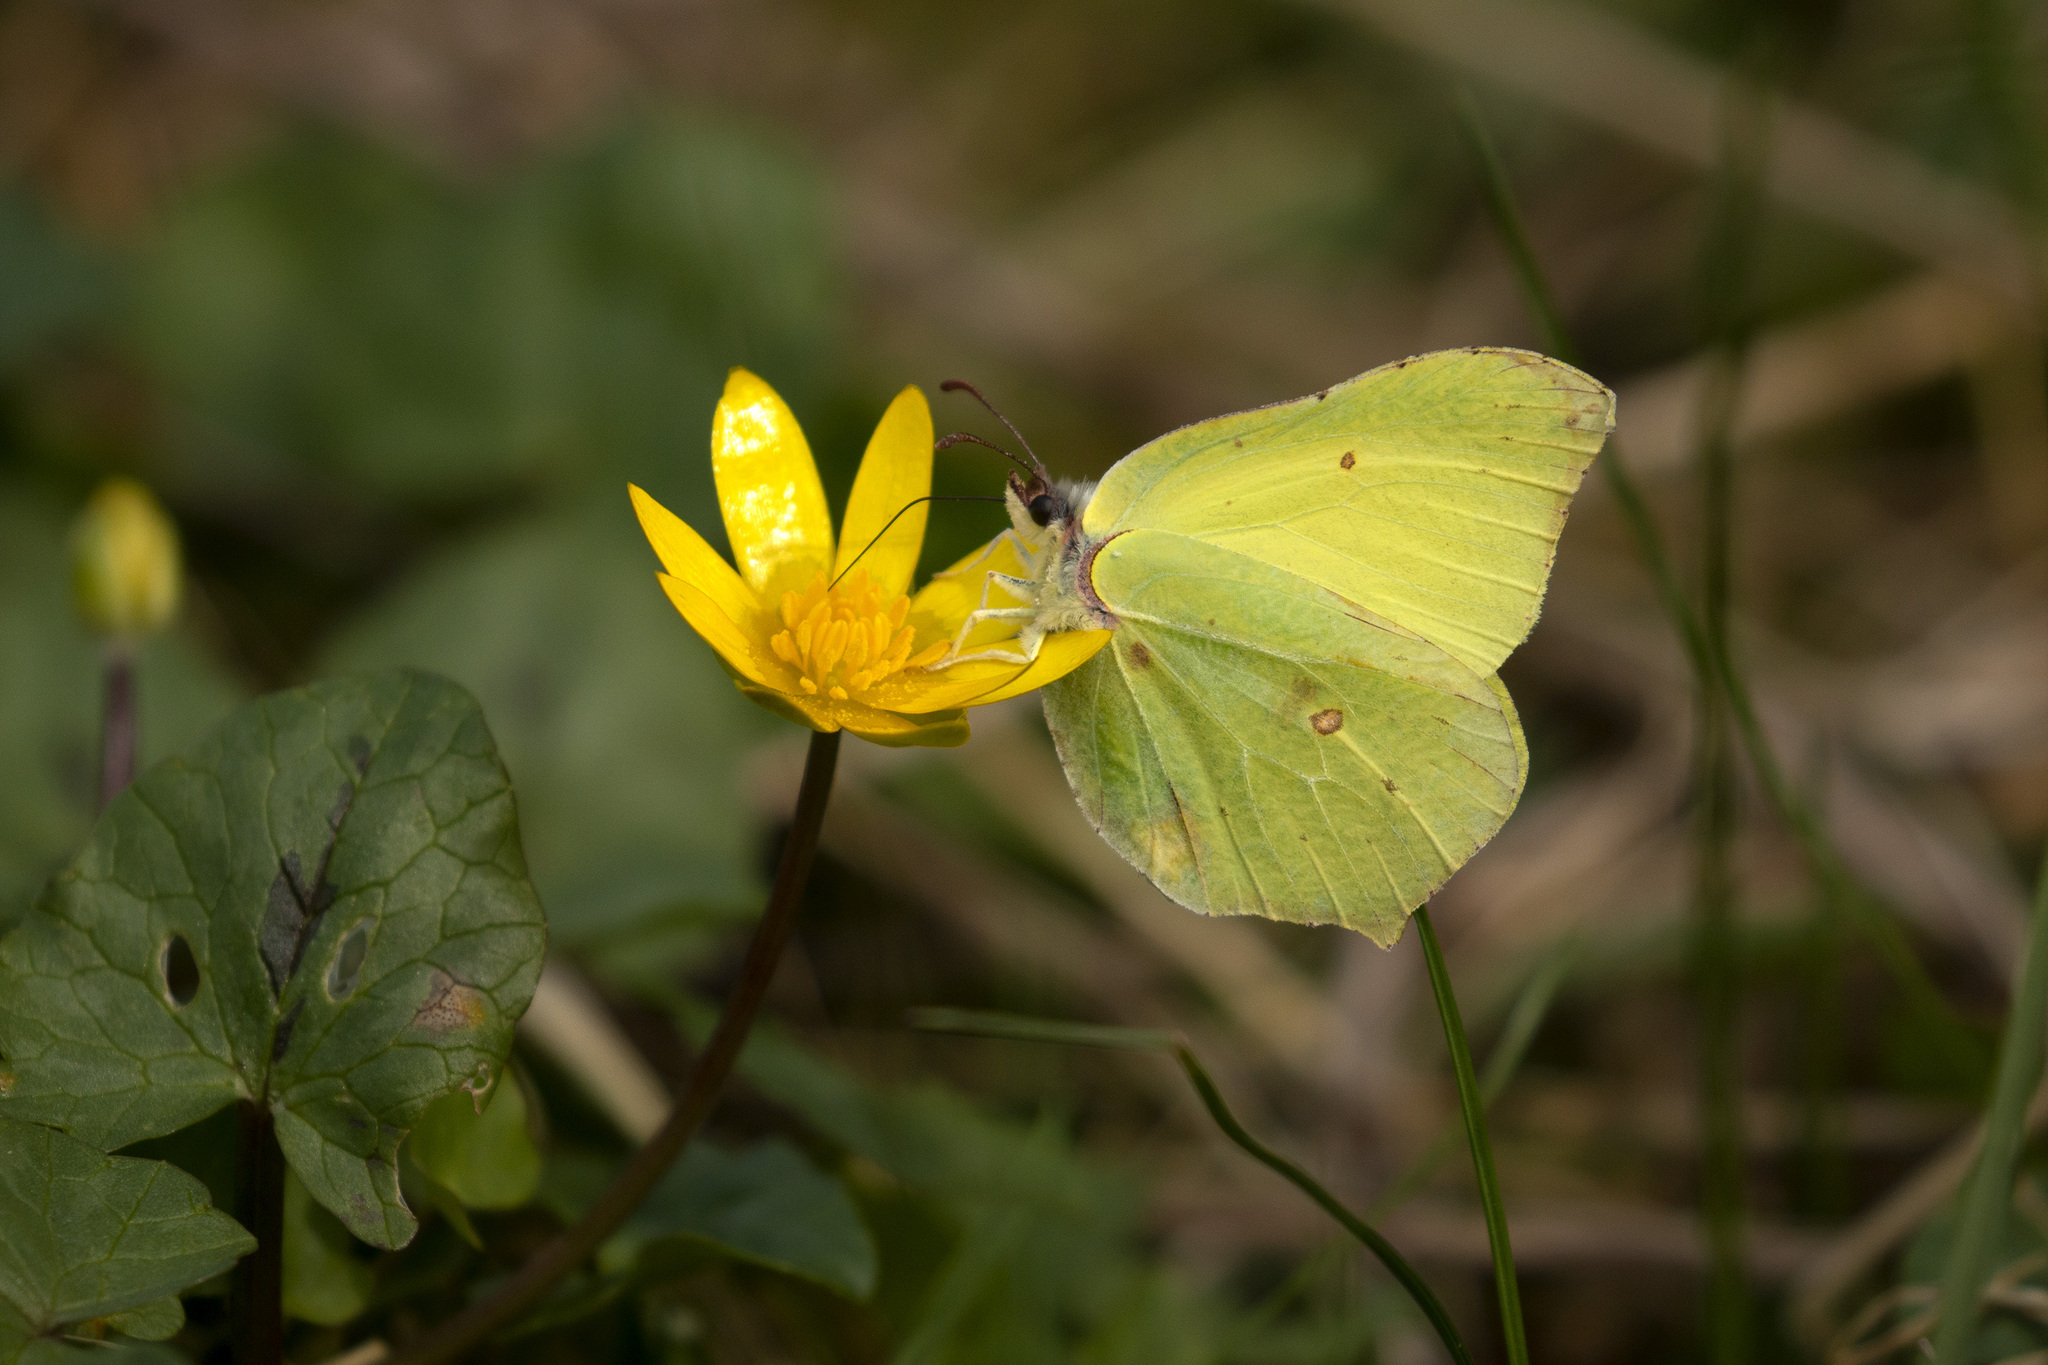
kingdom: Animalia
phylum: Arthropoda
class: Insecta
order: Lepidoptera
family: Pieridae
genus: Gonepteryx
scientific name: Gonepteryx rhamni
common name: Brimstone
